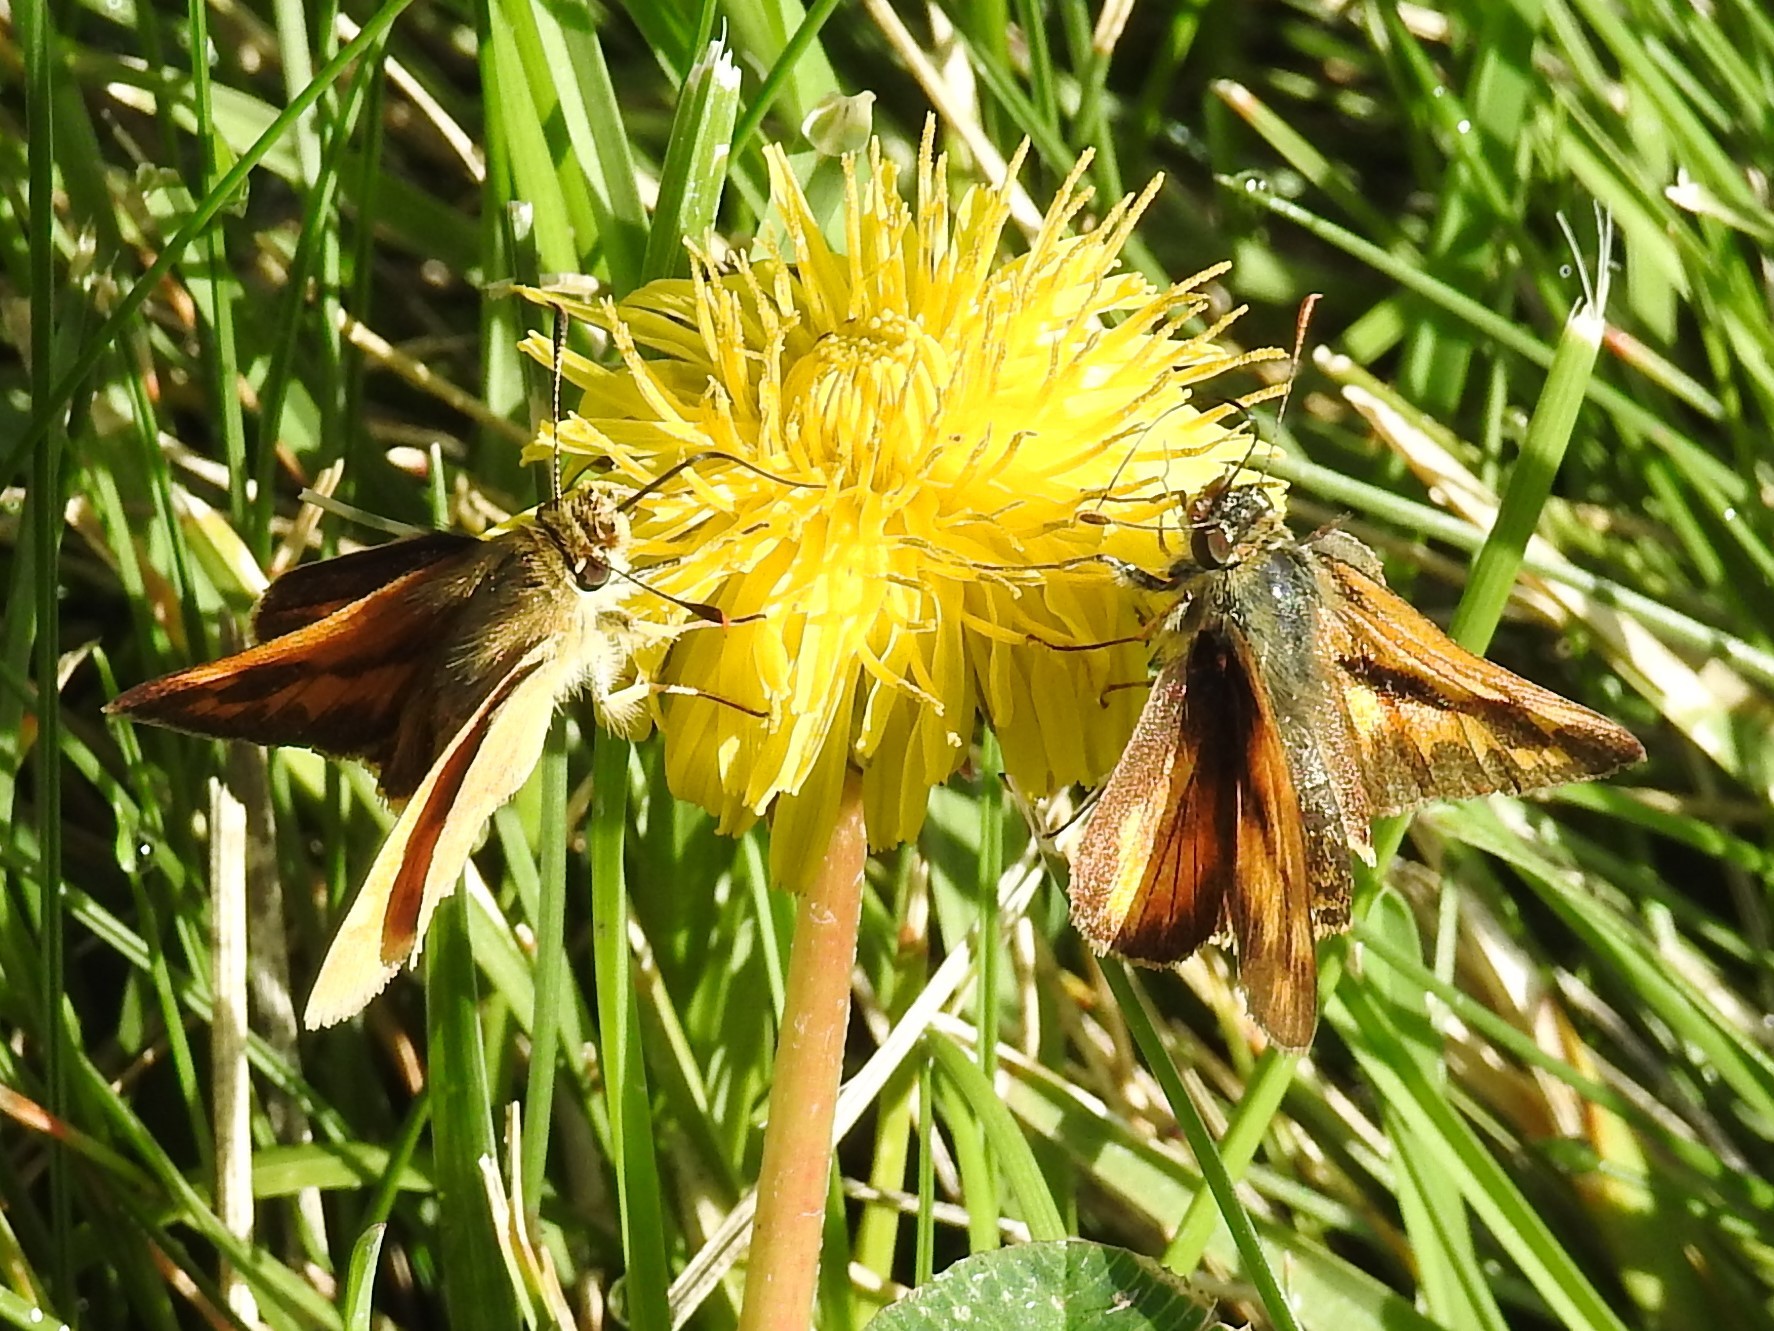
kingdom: Animalia
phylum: Arthropoda
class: Insecta
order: Lepidoptera
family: Hesperiidae
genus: Ochlodes
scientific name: Ochlodes sylvanoides
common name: Woodland skipper
